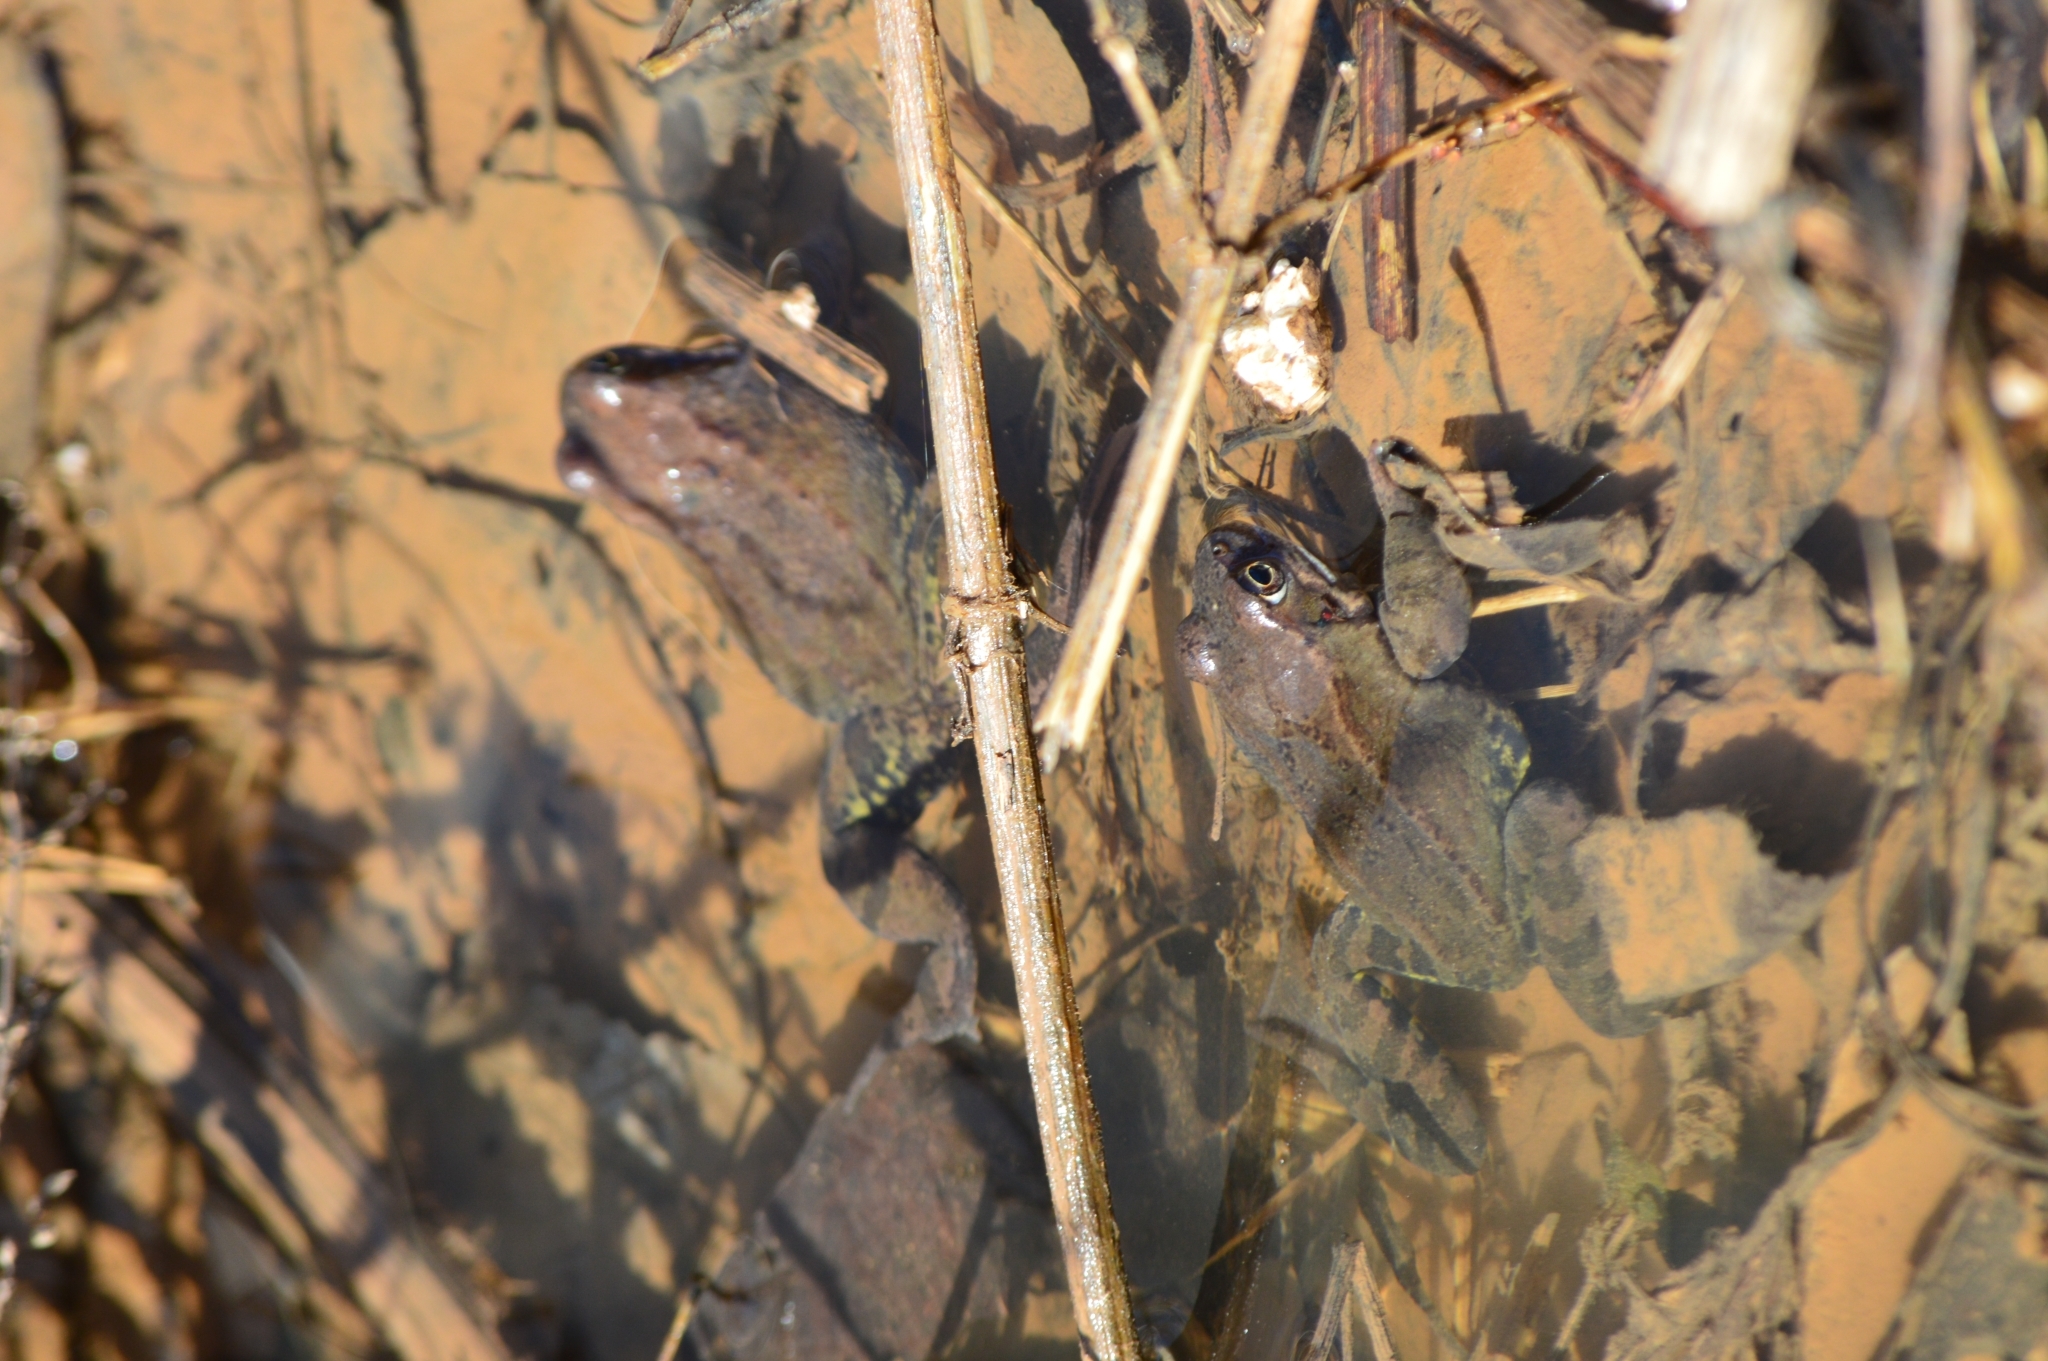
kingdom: Animalia
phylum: Chordata
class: Amphibia
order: Anura
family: Ranidae
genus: Rana
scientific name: Rana temporaria
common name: Common frog
